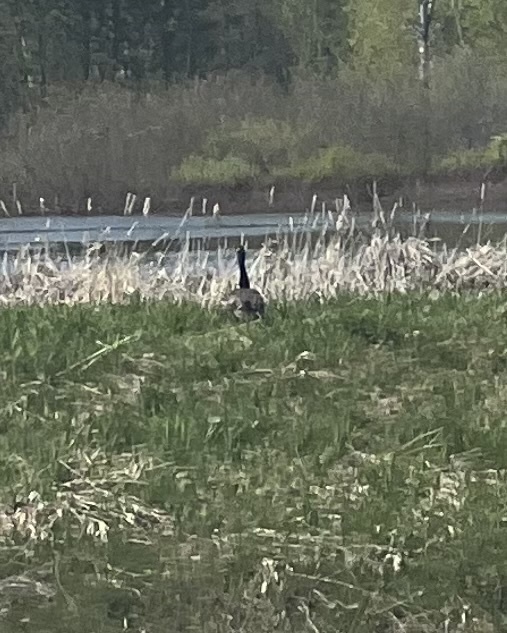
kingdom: Animalia
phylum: Chordata
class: Aves
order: Anseriformes
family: Anatidae
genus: Branta
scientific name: Branta canadensis
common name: Canada goose
